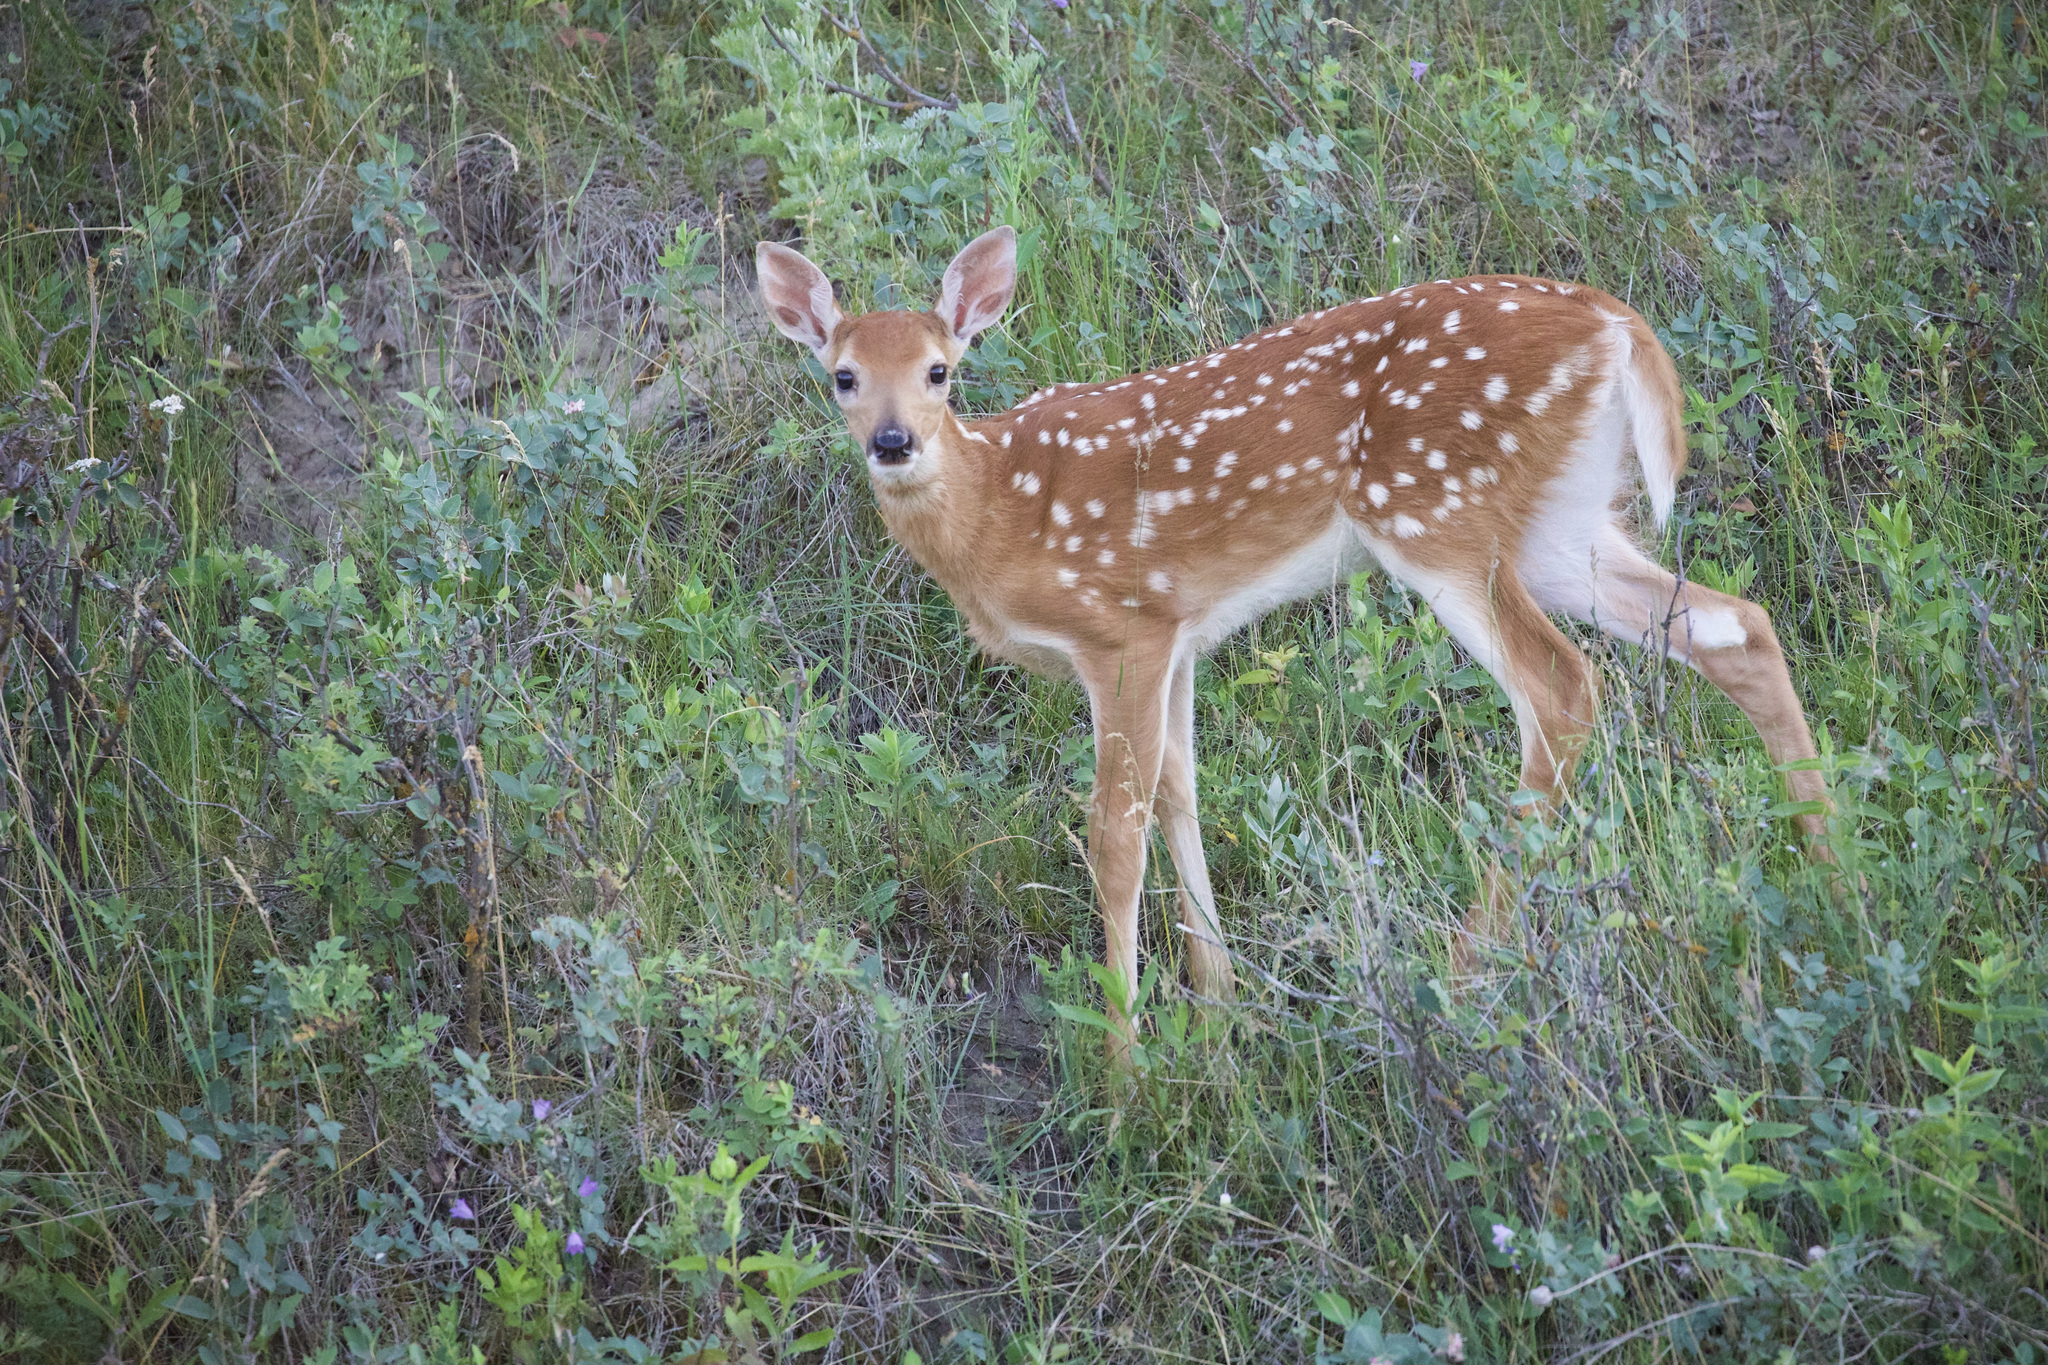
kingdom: Animalia
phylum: Chordata
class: Mammalia
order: Artiodactyla
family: Cervidae
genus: Odocoileus
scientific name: Odocoileus virginianus
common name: White-tailed deer
